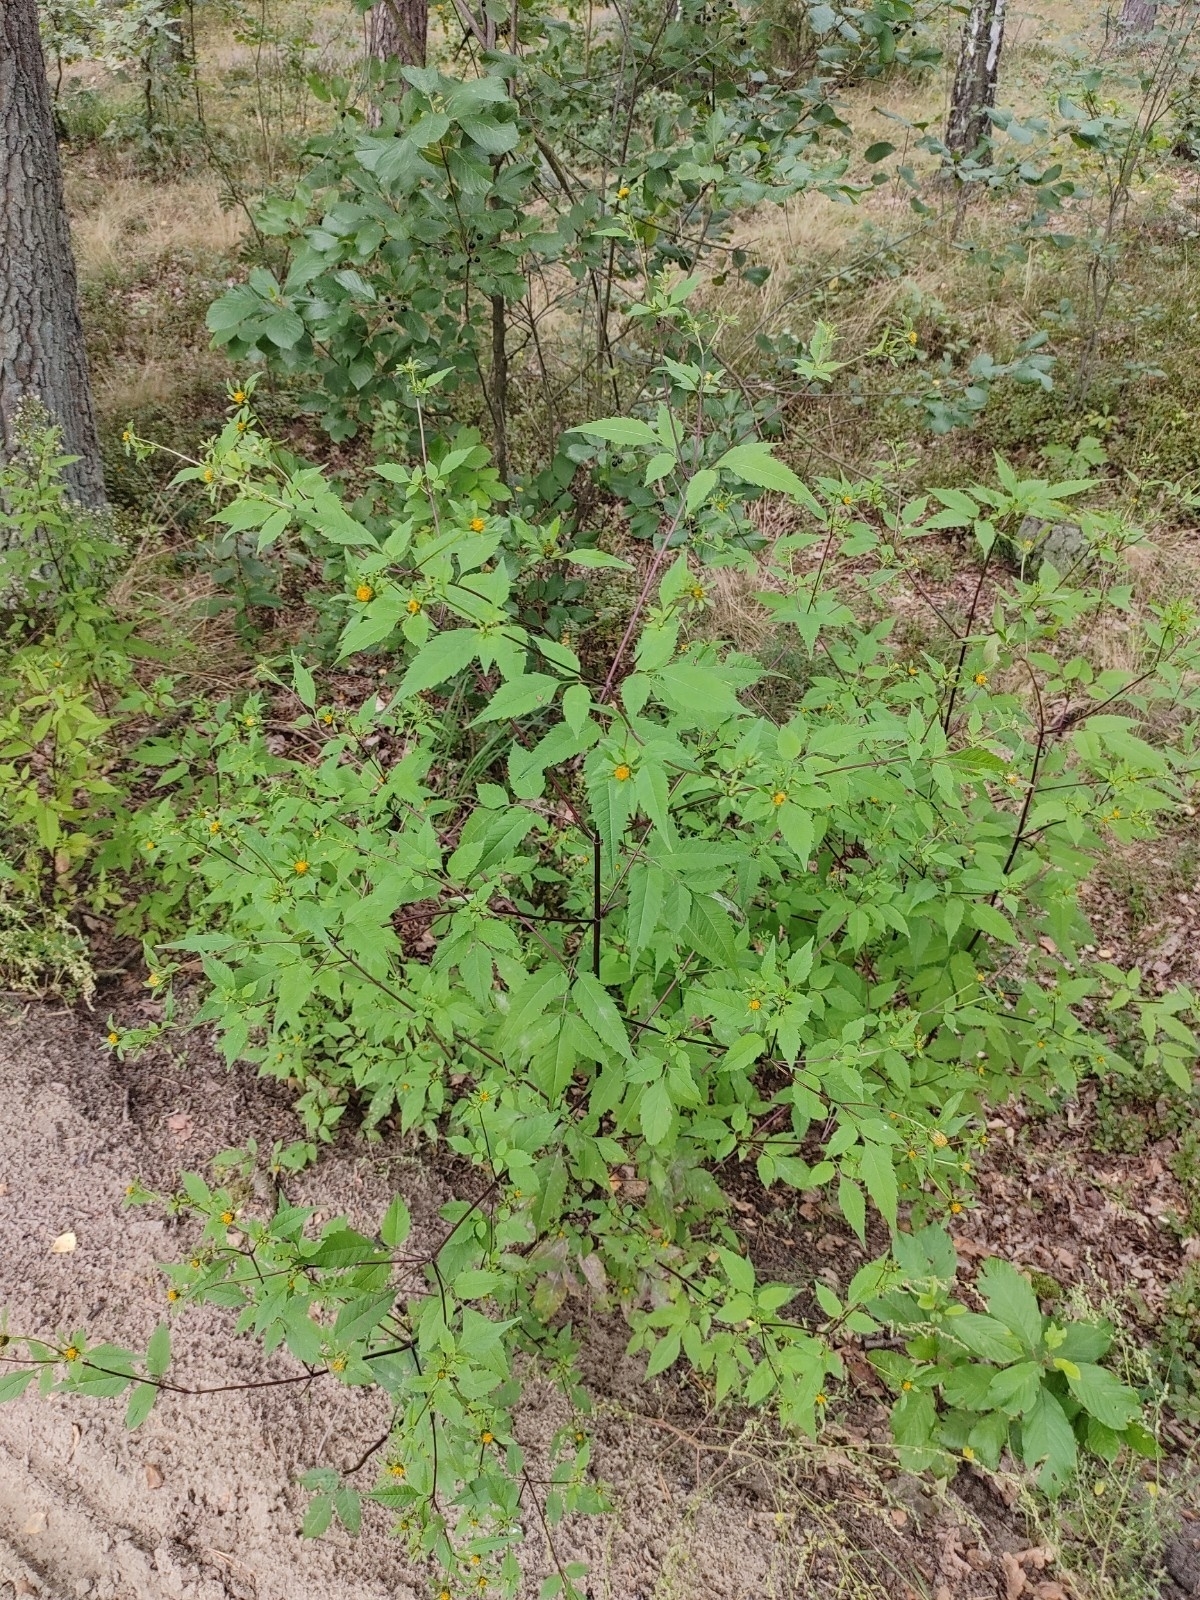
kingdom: Plantae
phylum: Tracheophyta
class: Magnoliopsida
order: Asterales
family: Asteraceae
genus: Bidens
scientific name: Bidens frondosa
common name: Beggarticks
